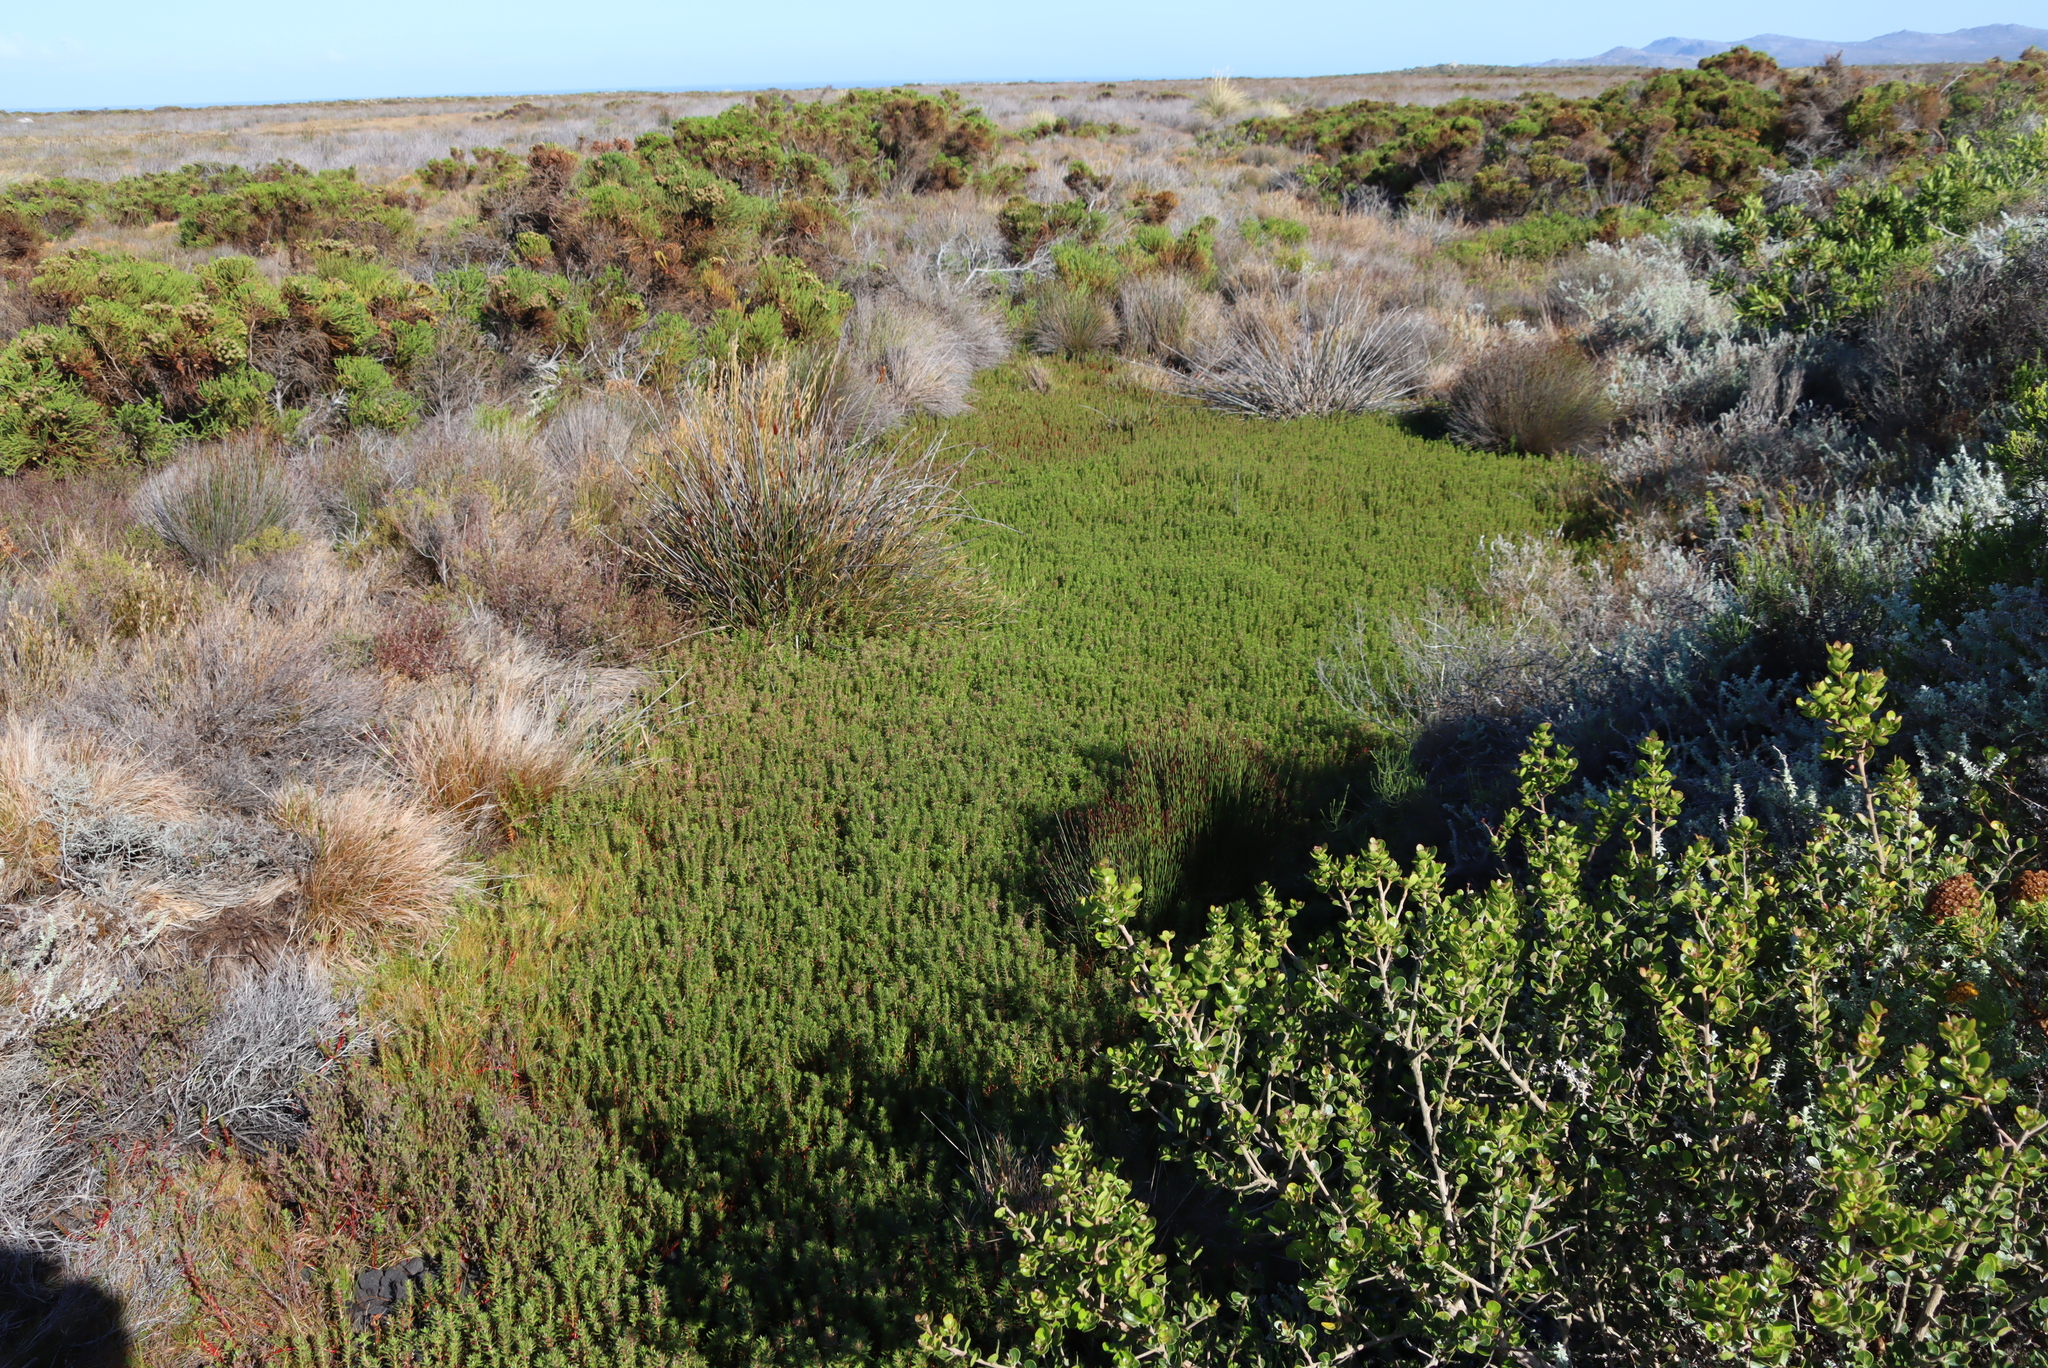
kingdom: Plantae
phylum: Tracheophyta
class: Magnoliopsida
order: Saxifragales
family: Haloragaceae
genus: Laurembergia
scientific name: Laurembergia repens
